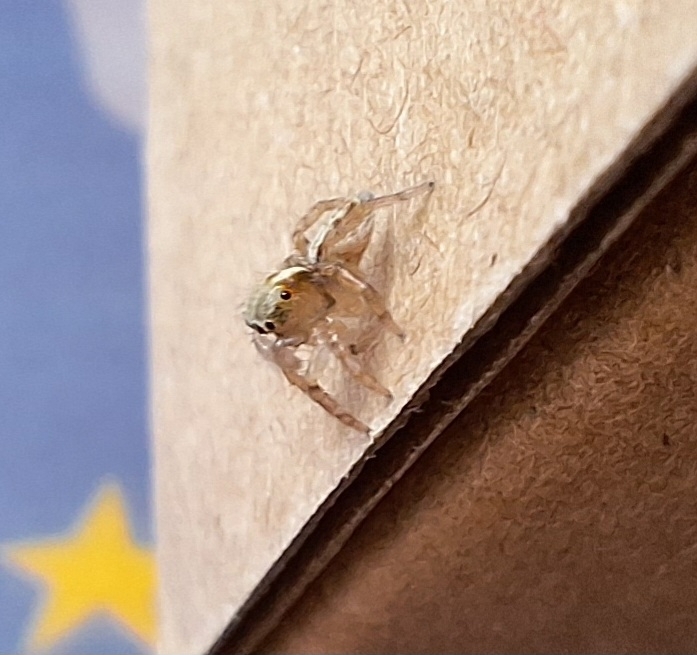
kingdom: Animalia
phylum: Arthropoda
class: Arachnida
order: Araneae
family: Salticidae
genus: Saitis
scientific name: Saitis barbipes
